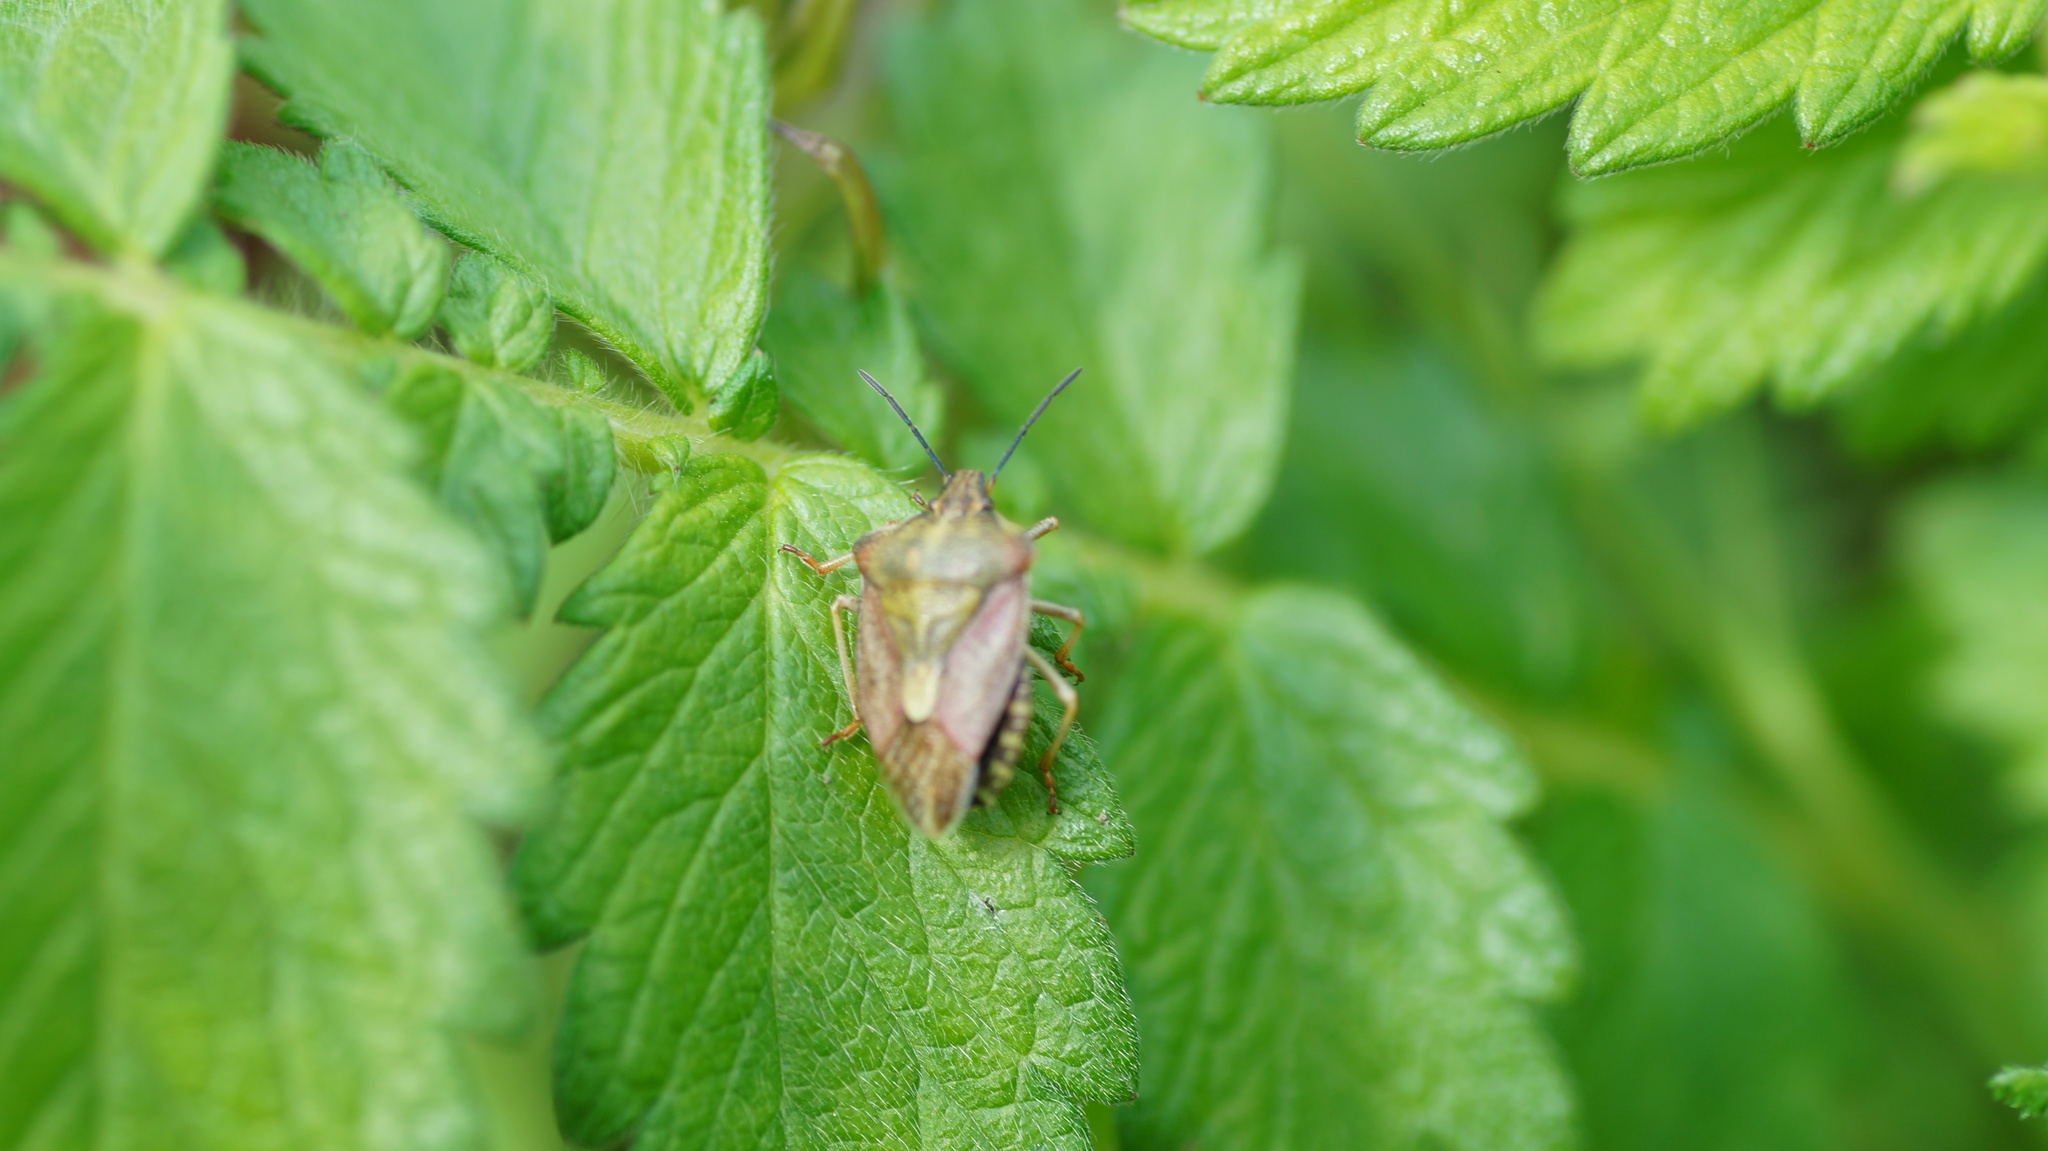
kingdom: Animalia
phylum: Arthropoda
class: Insecta
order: Hemiptera
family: Pentatomidae
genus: Carpocoris
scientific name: Carpocoris purpureipennis
